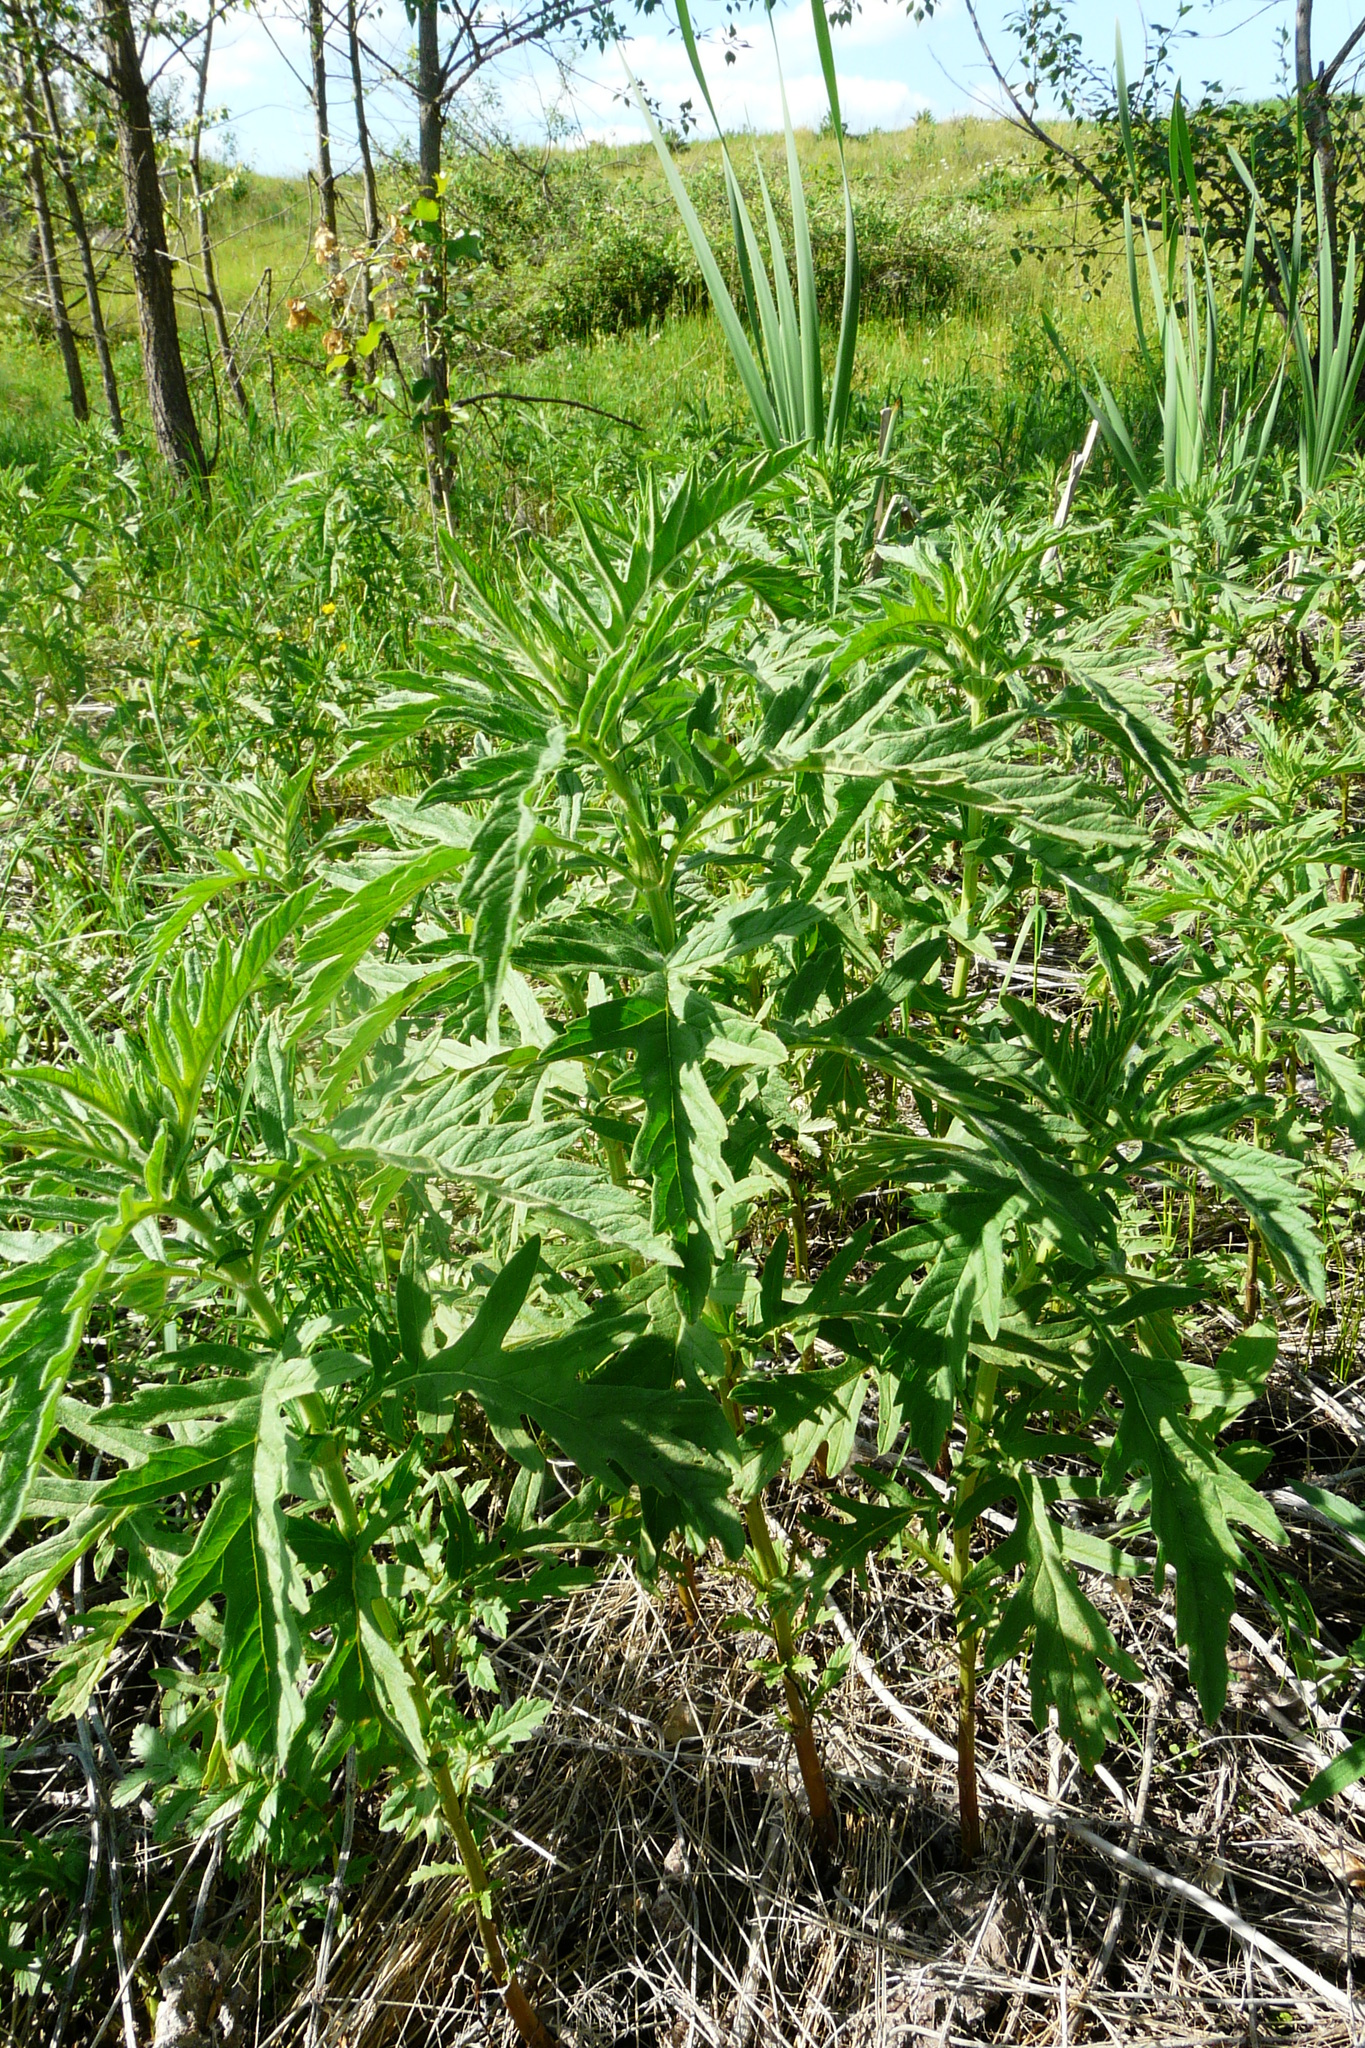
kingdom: Plantae
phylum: Tracheophyta
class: Magnoliopsida
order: Lamiales
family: Lamiaceae
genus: Lycopus
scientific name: Lycopus exaltatus
